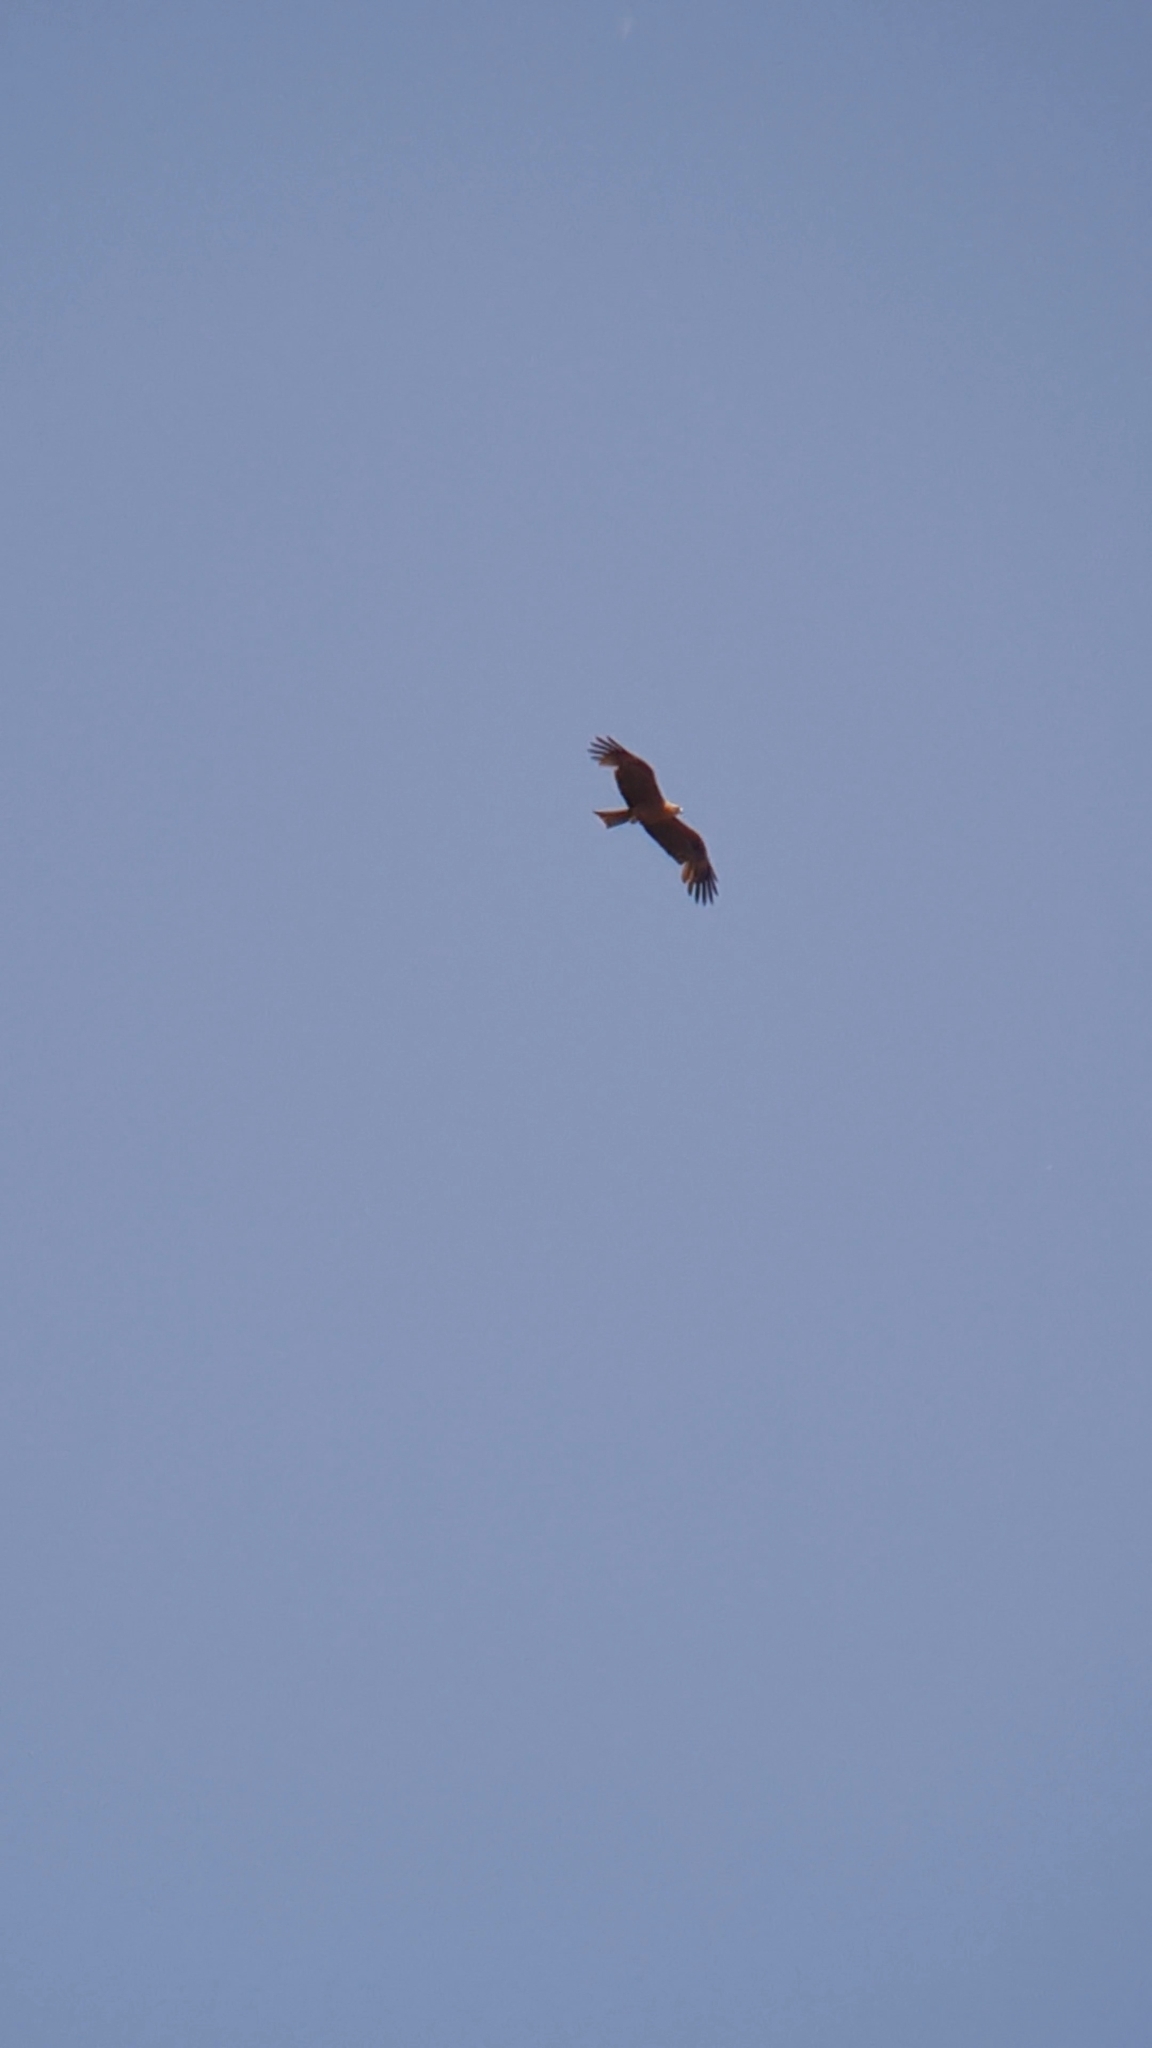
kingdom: Animalia
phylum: Chordata
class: Aves
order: Accipitriformes
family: Accipitridae
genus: Milvus
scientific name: Milvus migrans
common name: Black kite
